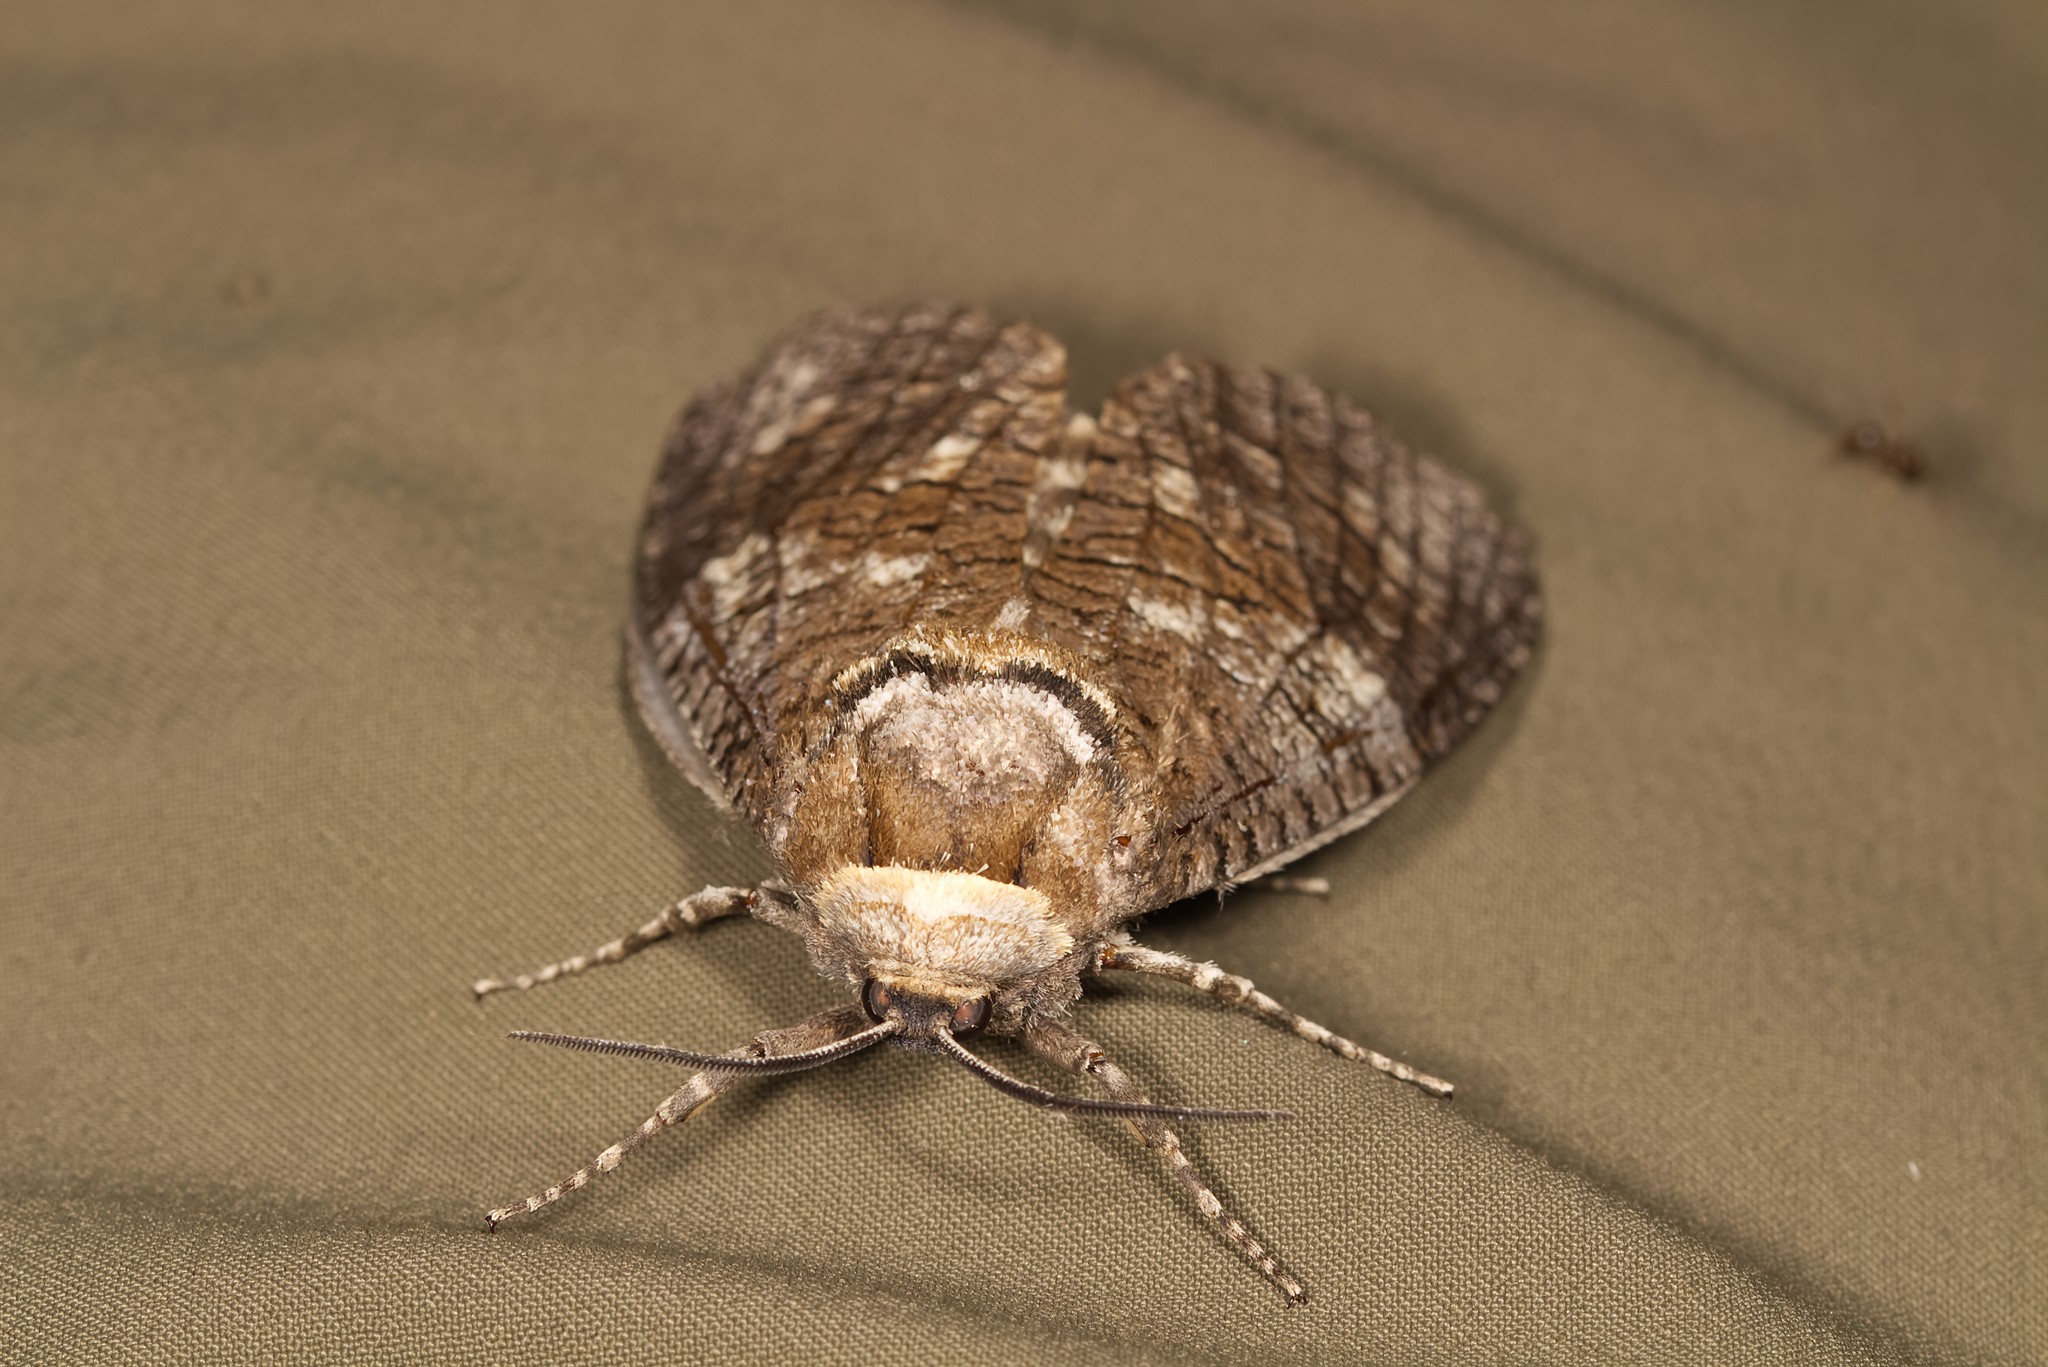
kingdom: Animalia
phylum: Arthropoda
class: Insecta
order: Lepidoptera
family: Cossidae
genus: Cossus
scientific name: Cossus cossus
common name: Goat moth
